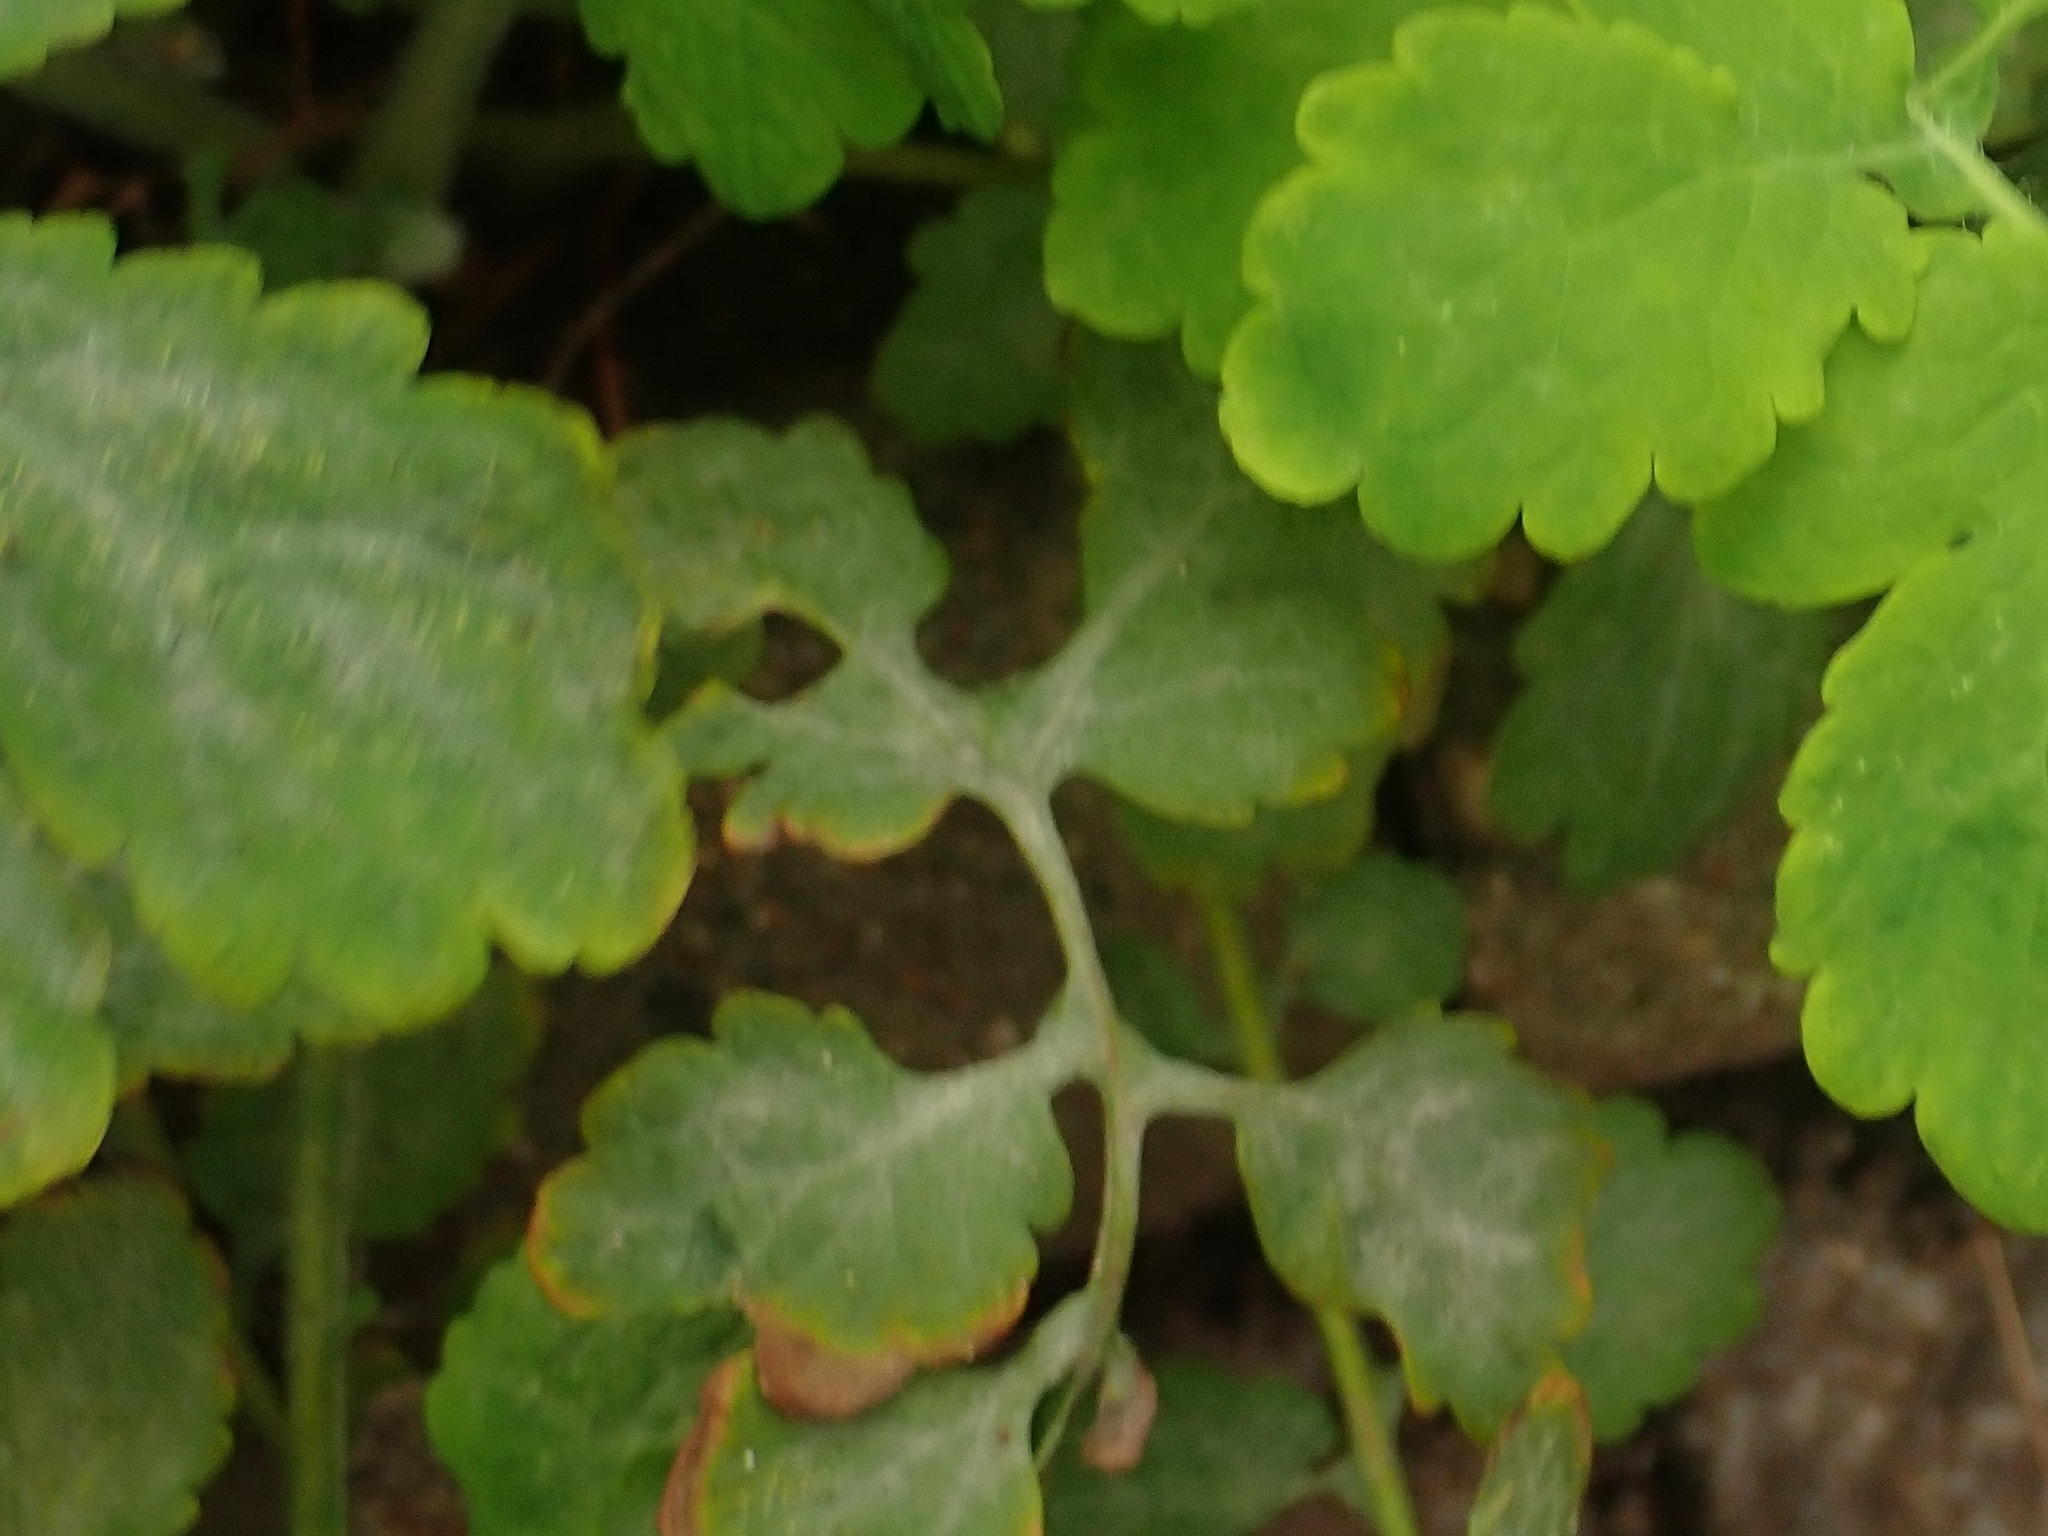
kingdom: Fungi
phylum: Ascomycota
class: Leotiomycetes
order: Helotiales
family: Erysiphaceae
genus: Erysiphe
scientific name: Erysiphe macleayae
